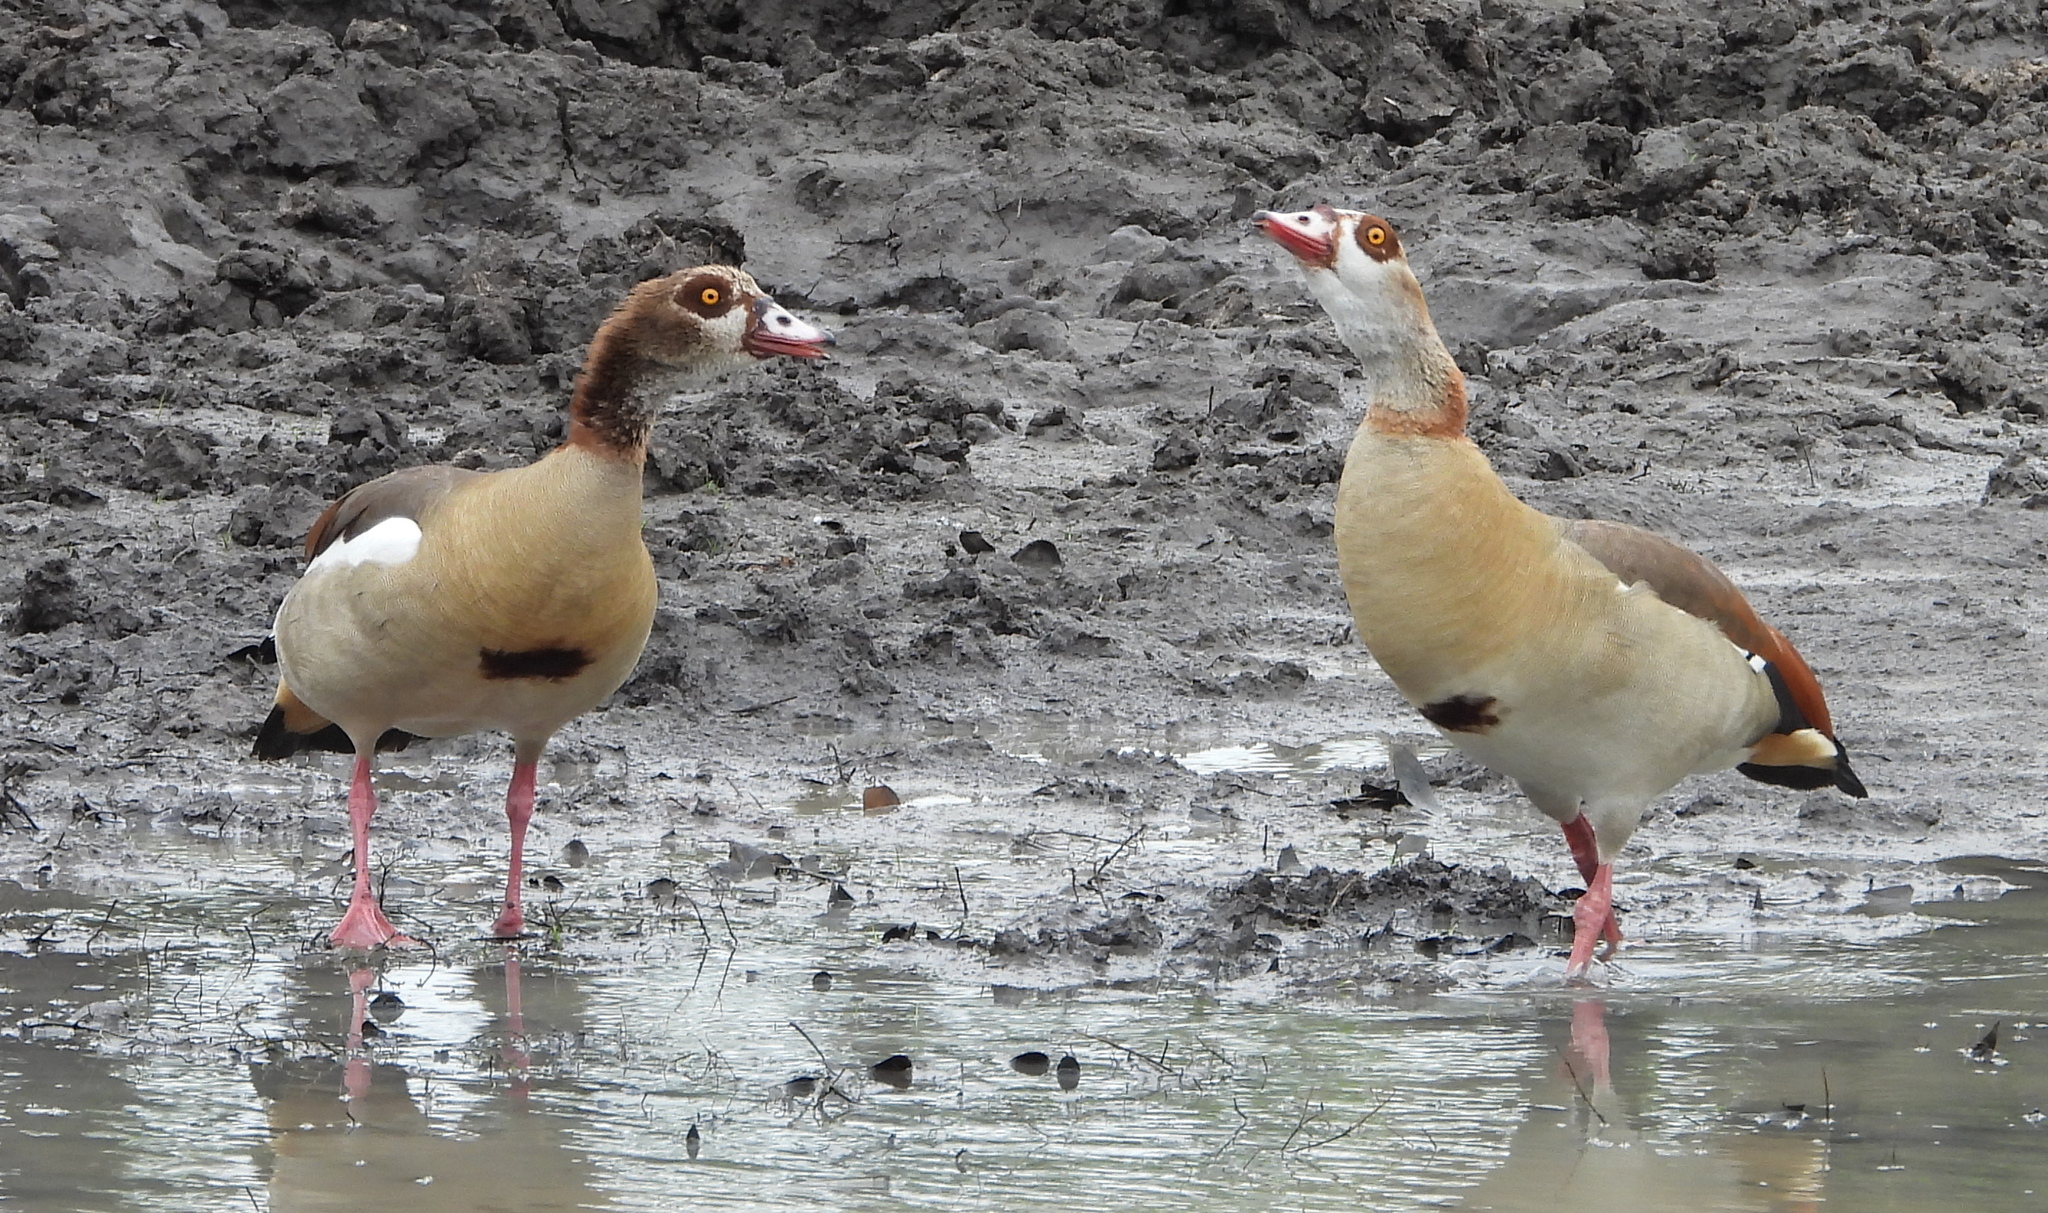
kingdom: Animalia
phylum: Chordata
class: Aves
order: Anseriformes
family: Anatidae
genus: Alopochen
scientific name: Alopochen aegyptiaca
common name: Egyptian goose
